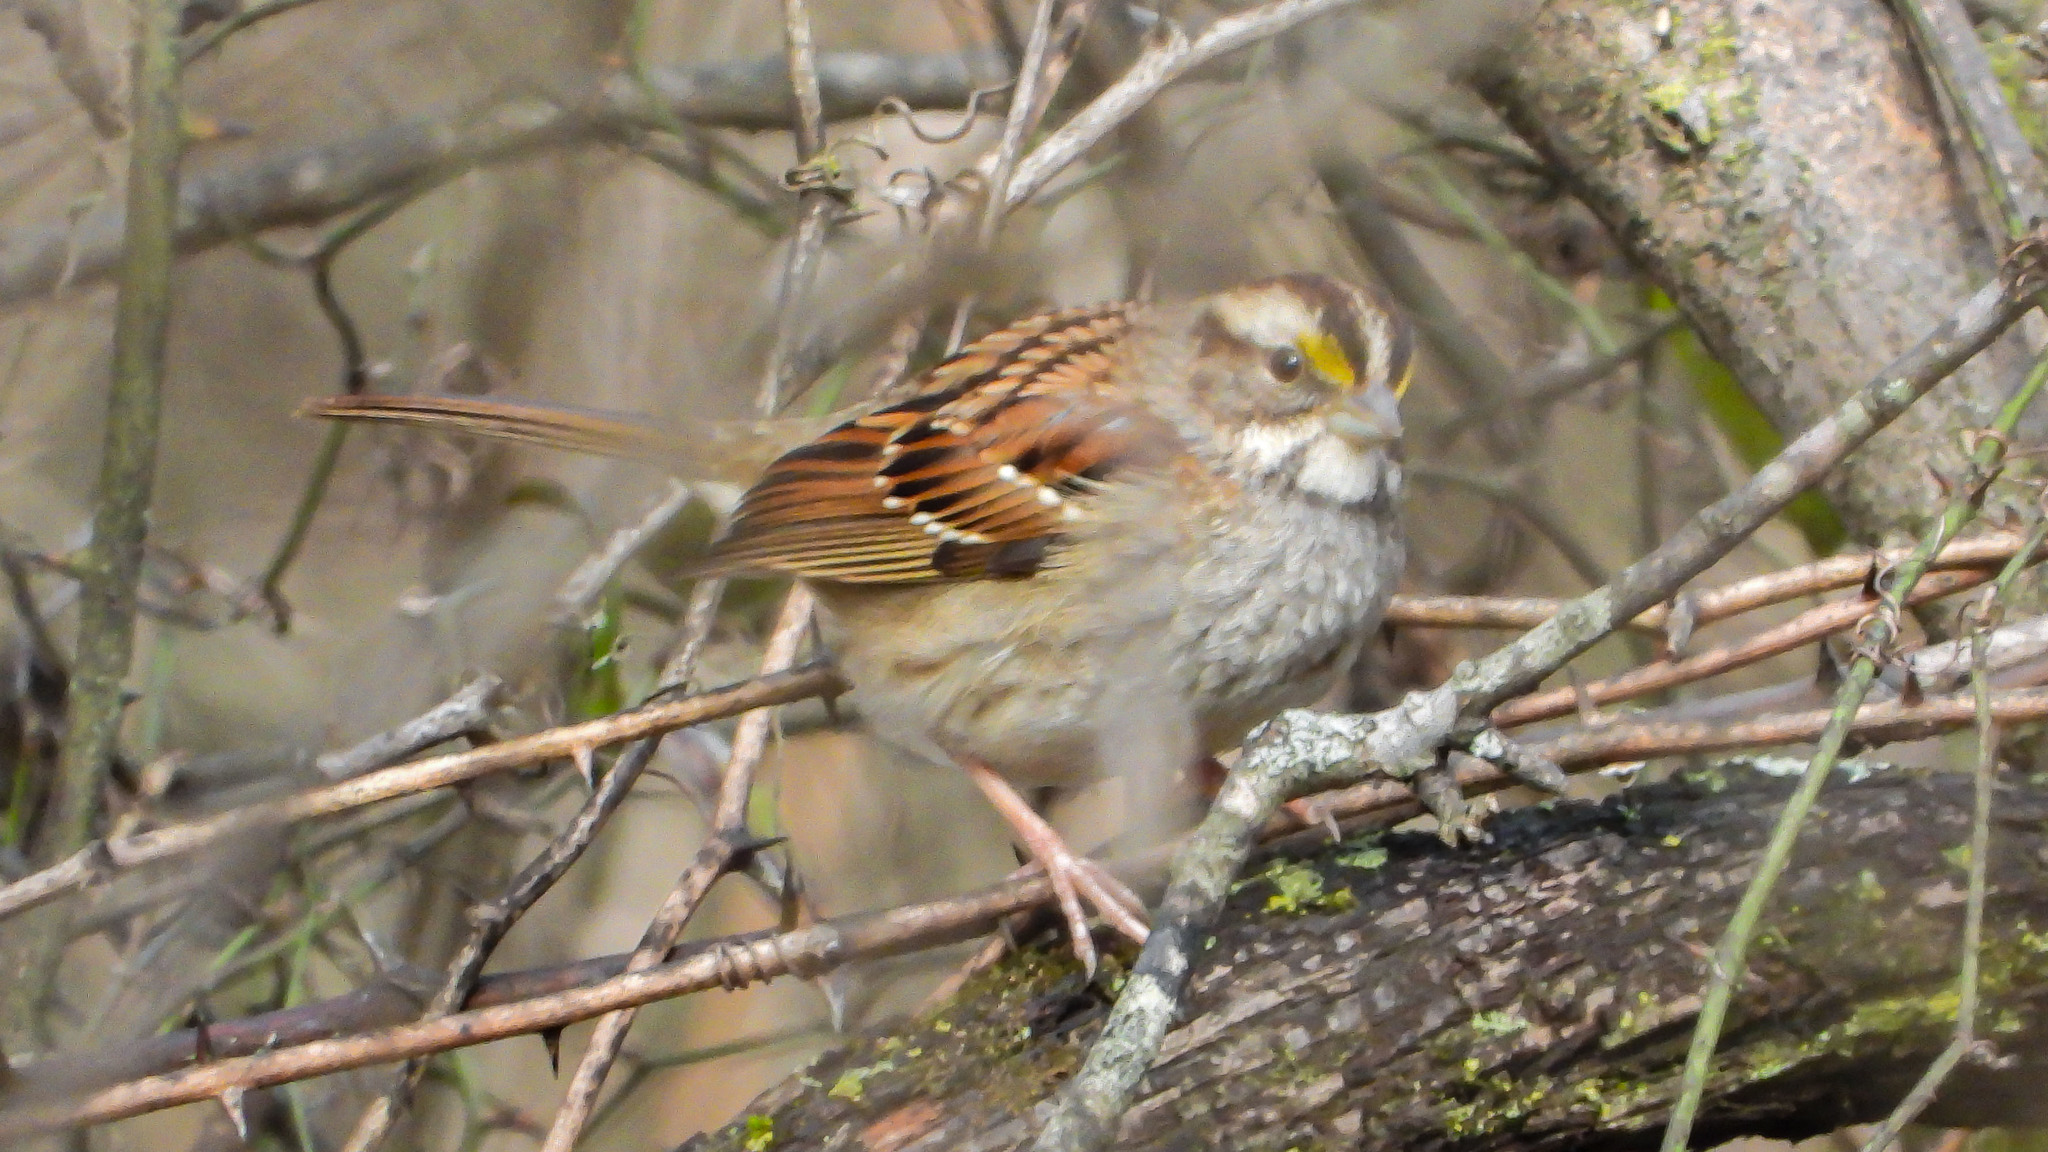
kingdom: Animalia
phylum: Chordata
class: Aves
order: Passeriformes
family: Passerellidae
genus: Zonotrichia
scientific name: Zonotrichia albicollis
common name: White-throated sparrow
